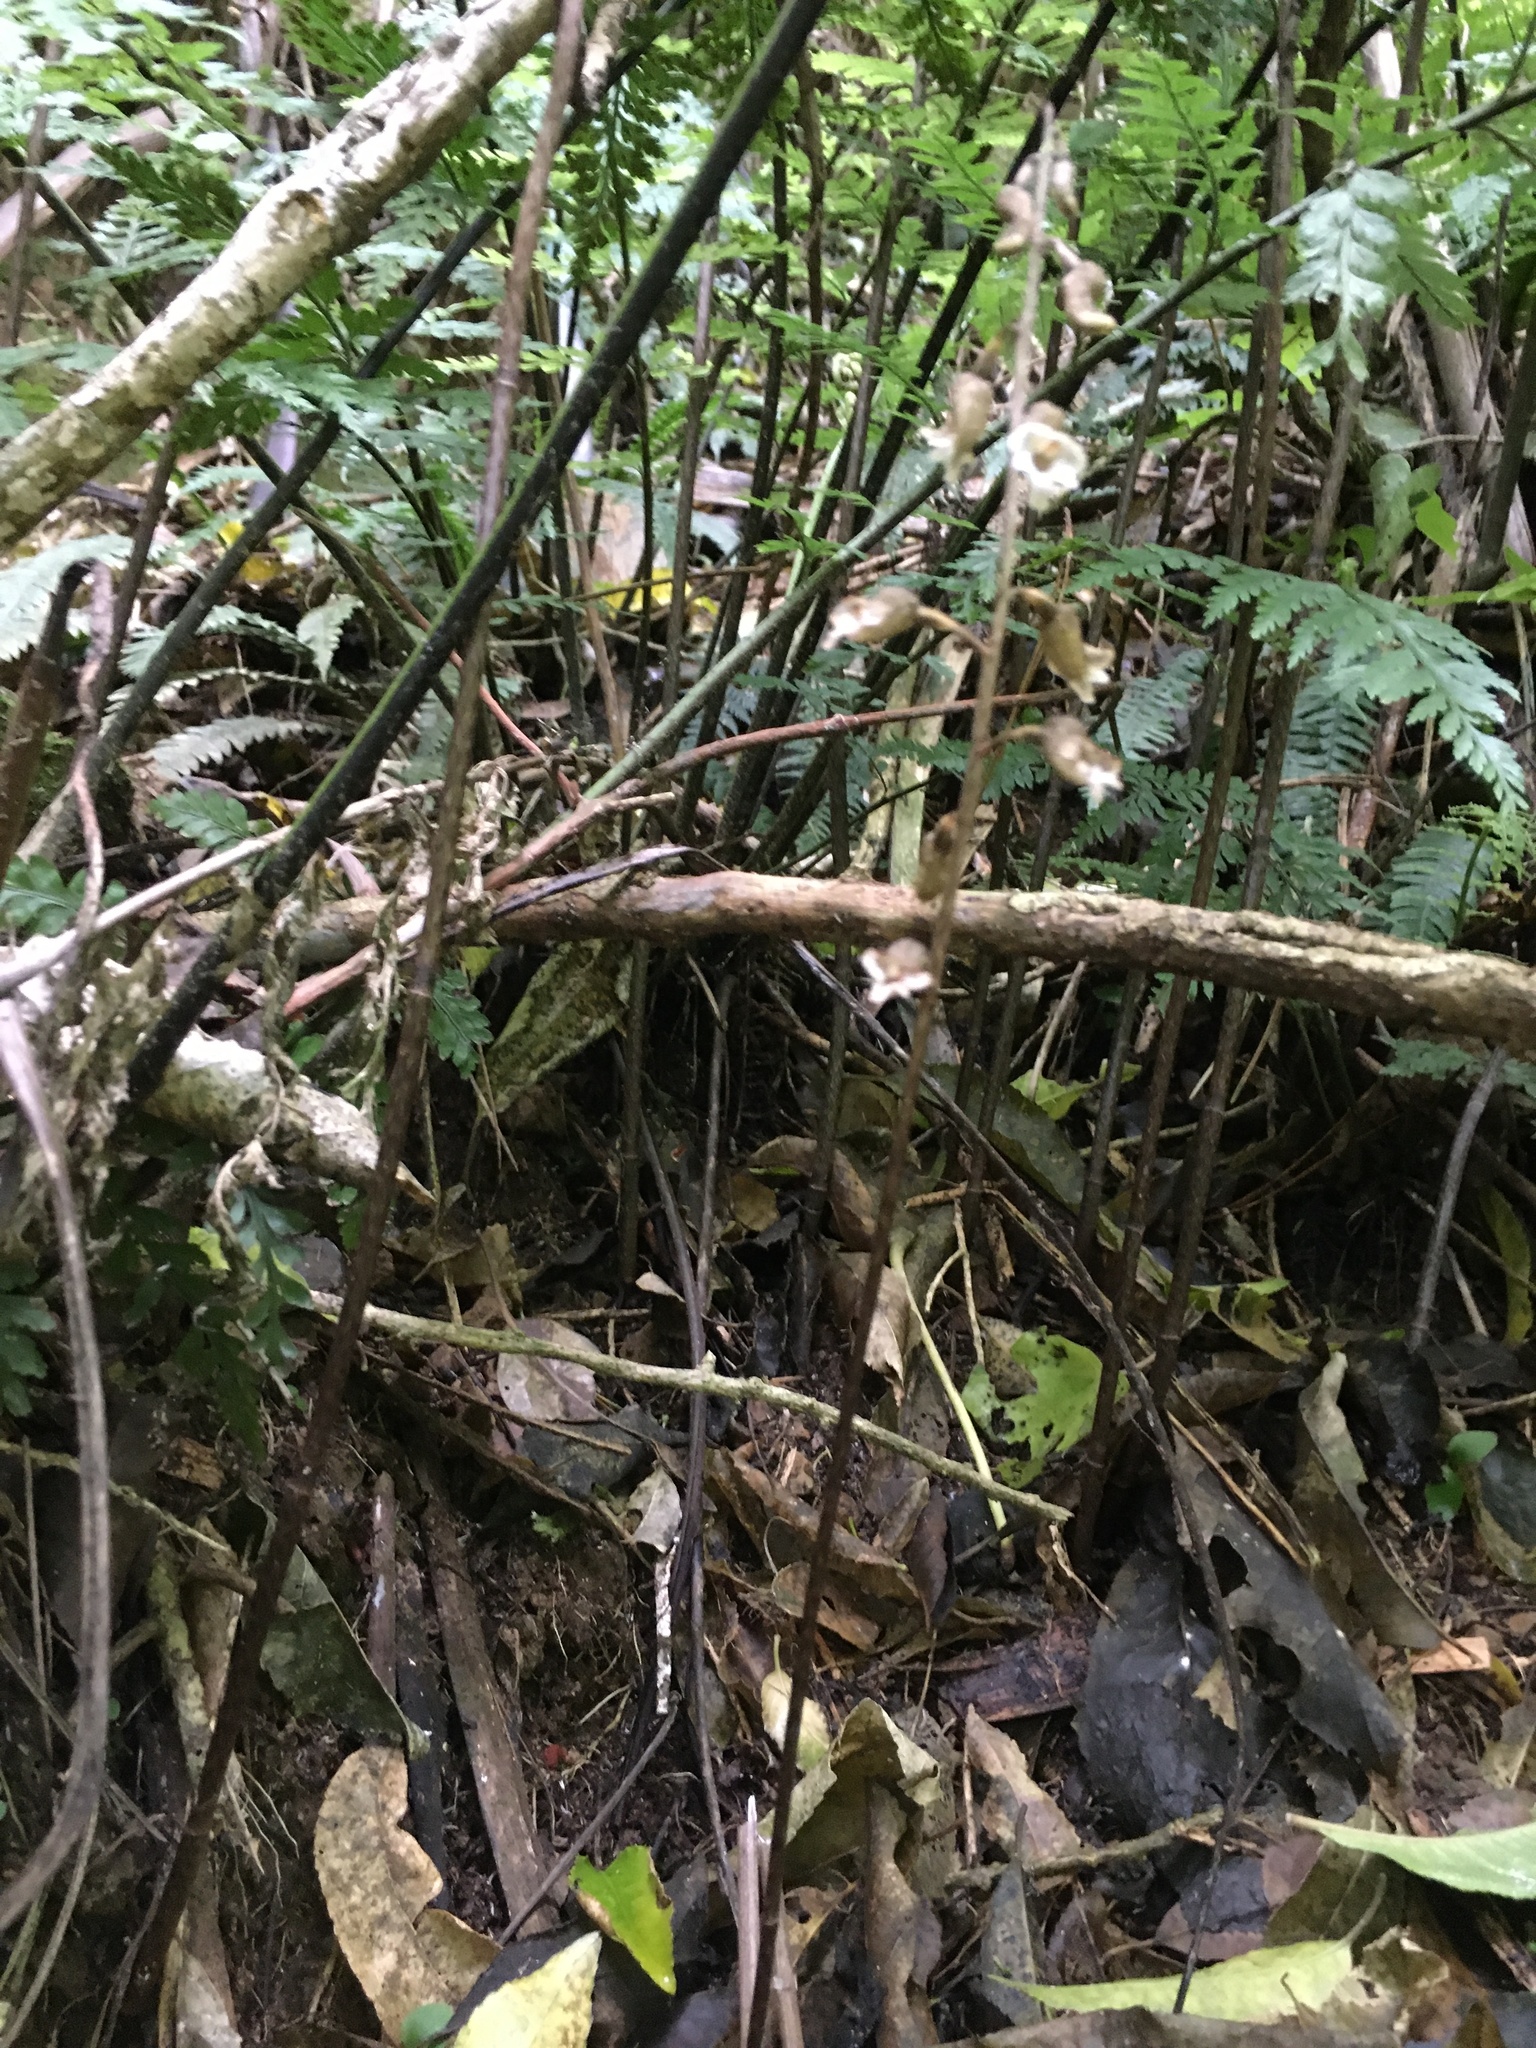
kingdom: Plantae
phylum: Tracheophyta
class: Liliopsida
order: Asparagales
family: Orchidaceae
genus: Gastrodia
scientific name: Gastrodia cunninghamii
